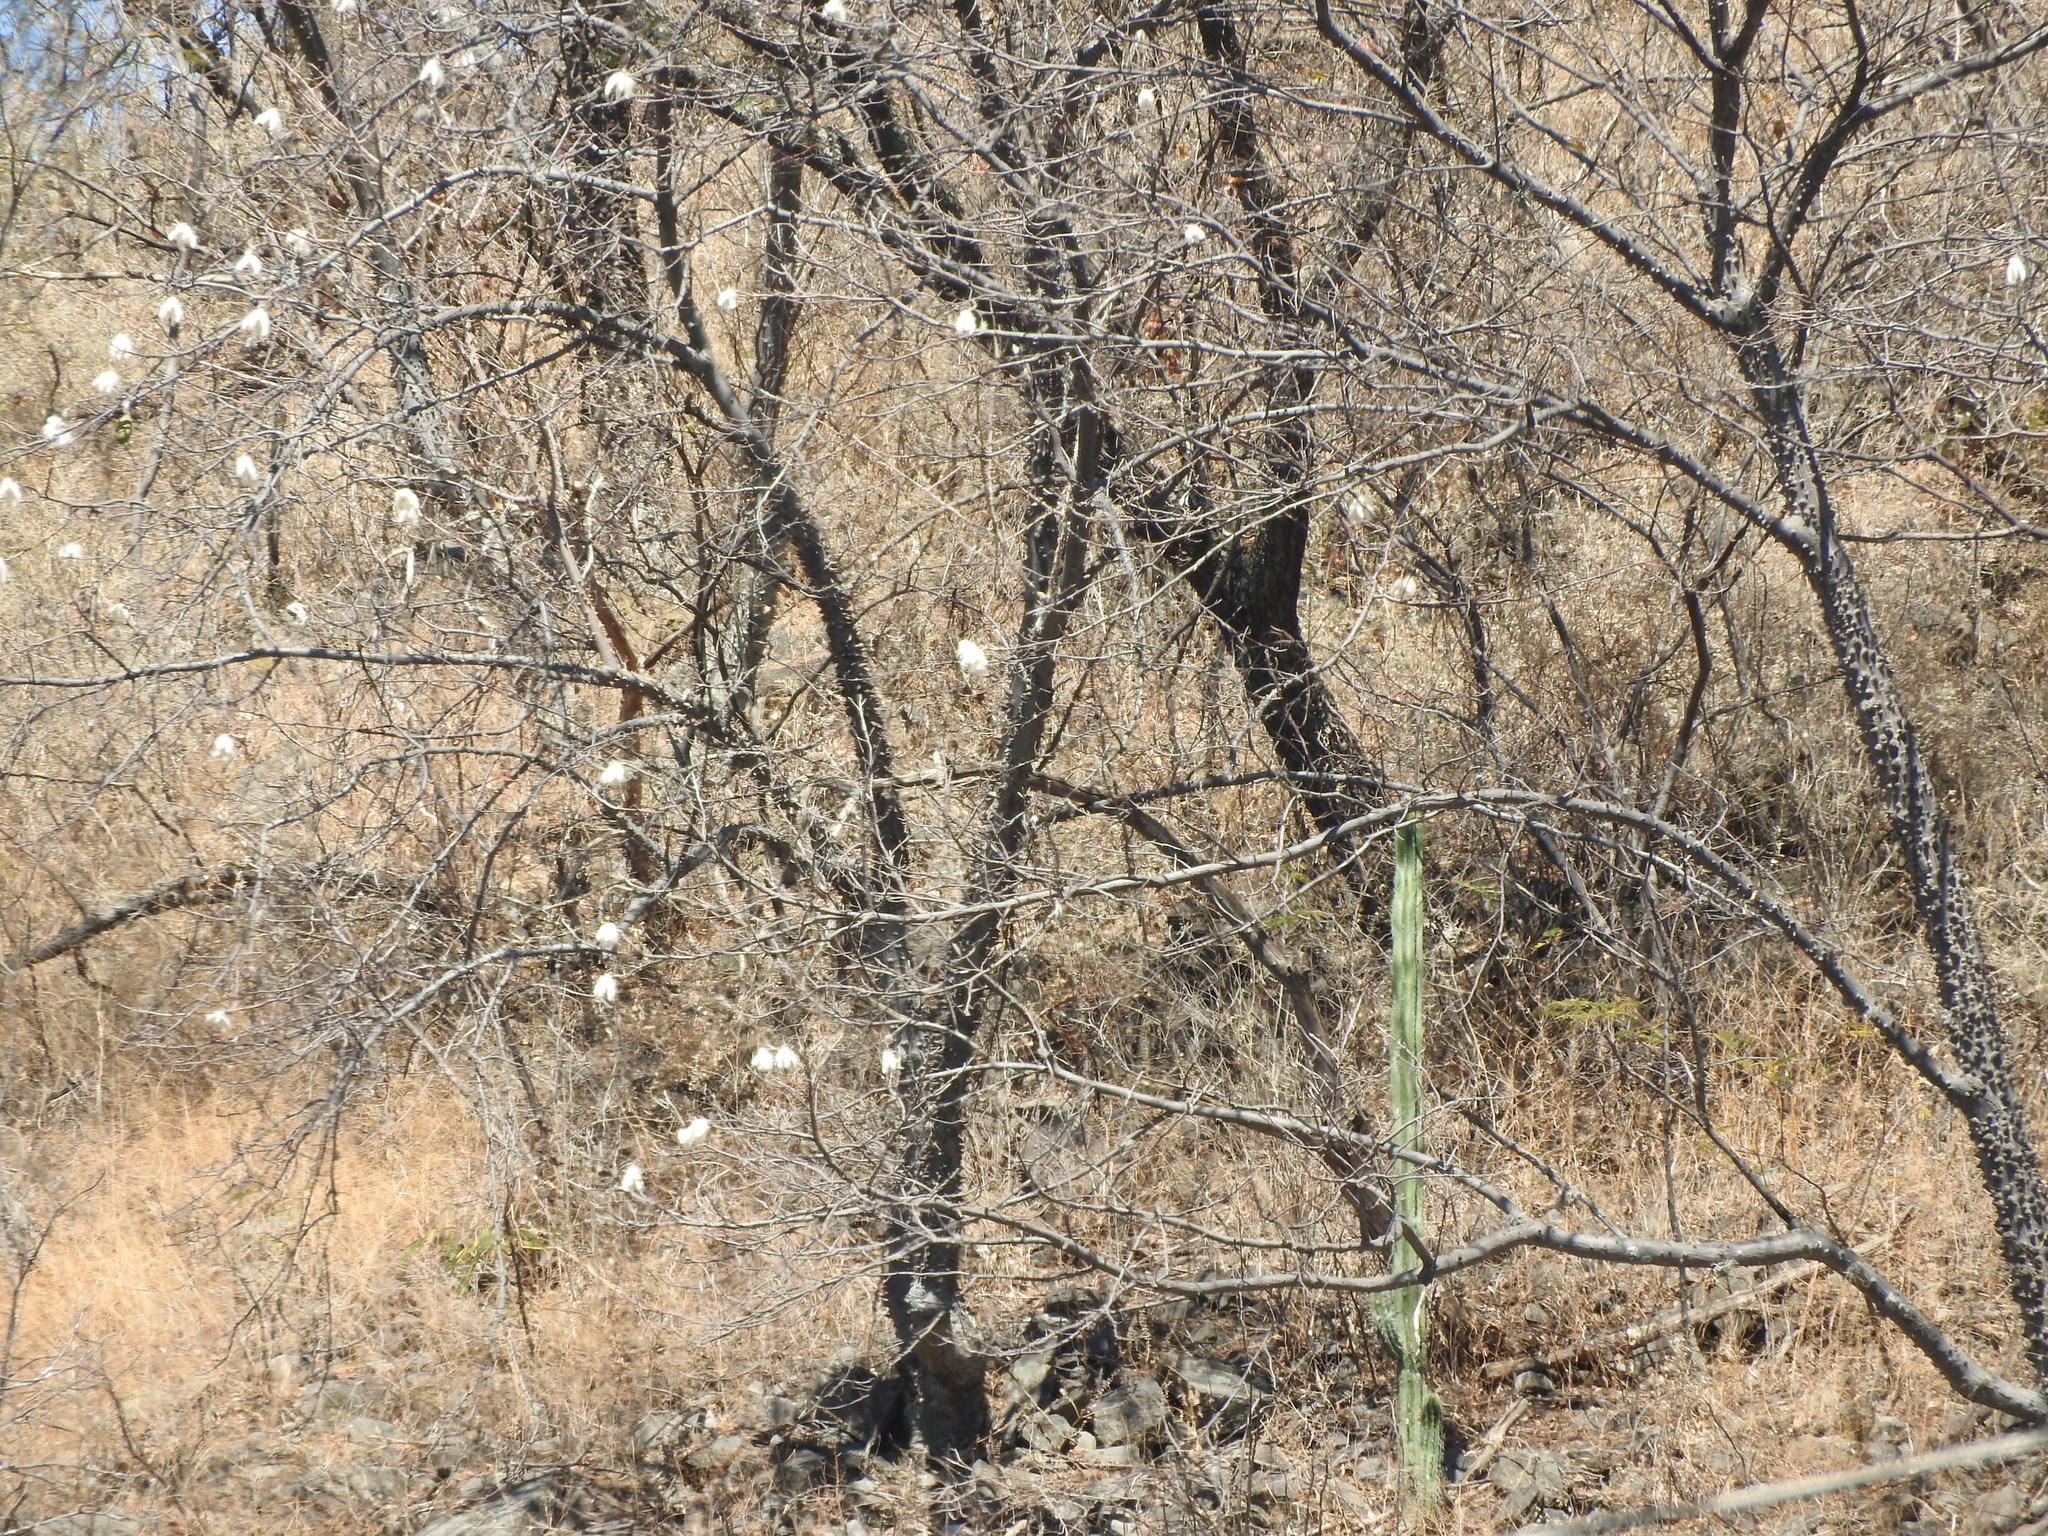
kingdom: Plantae
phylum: Tracheophyta
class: Magnoliopsida
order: Malvales
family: Malvaceae
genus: Ceiba
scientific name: Ceiba aesculifolia
